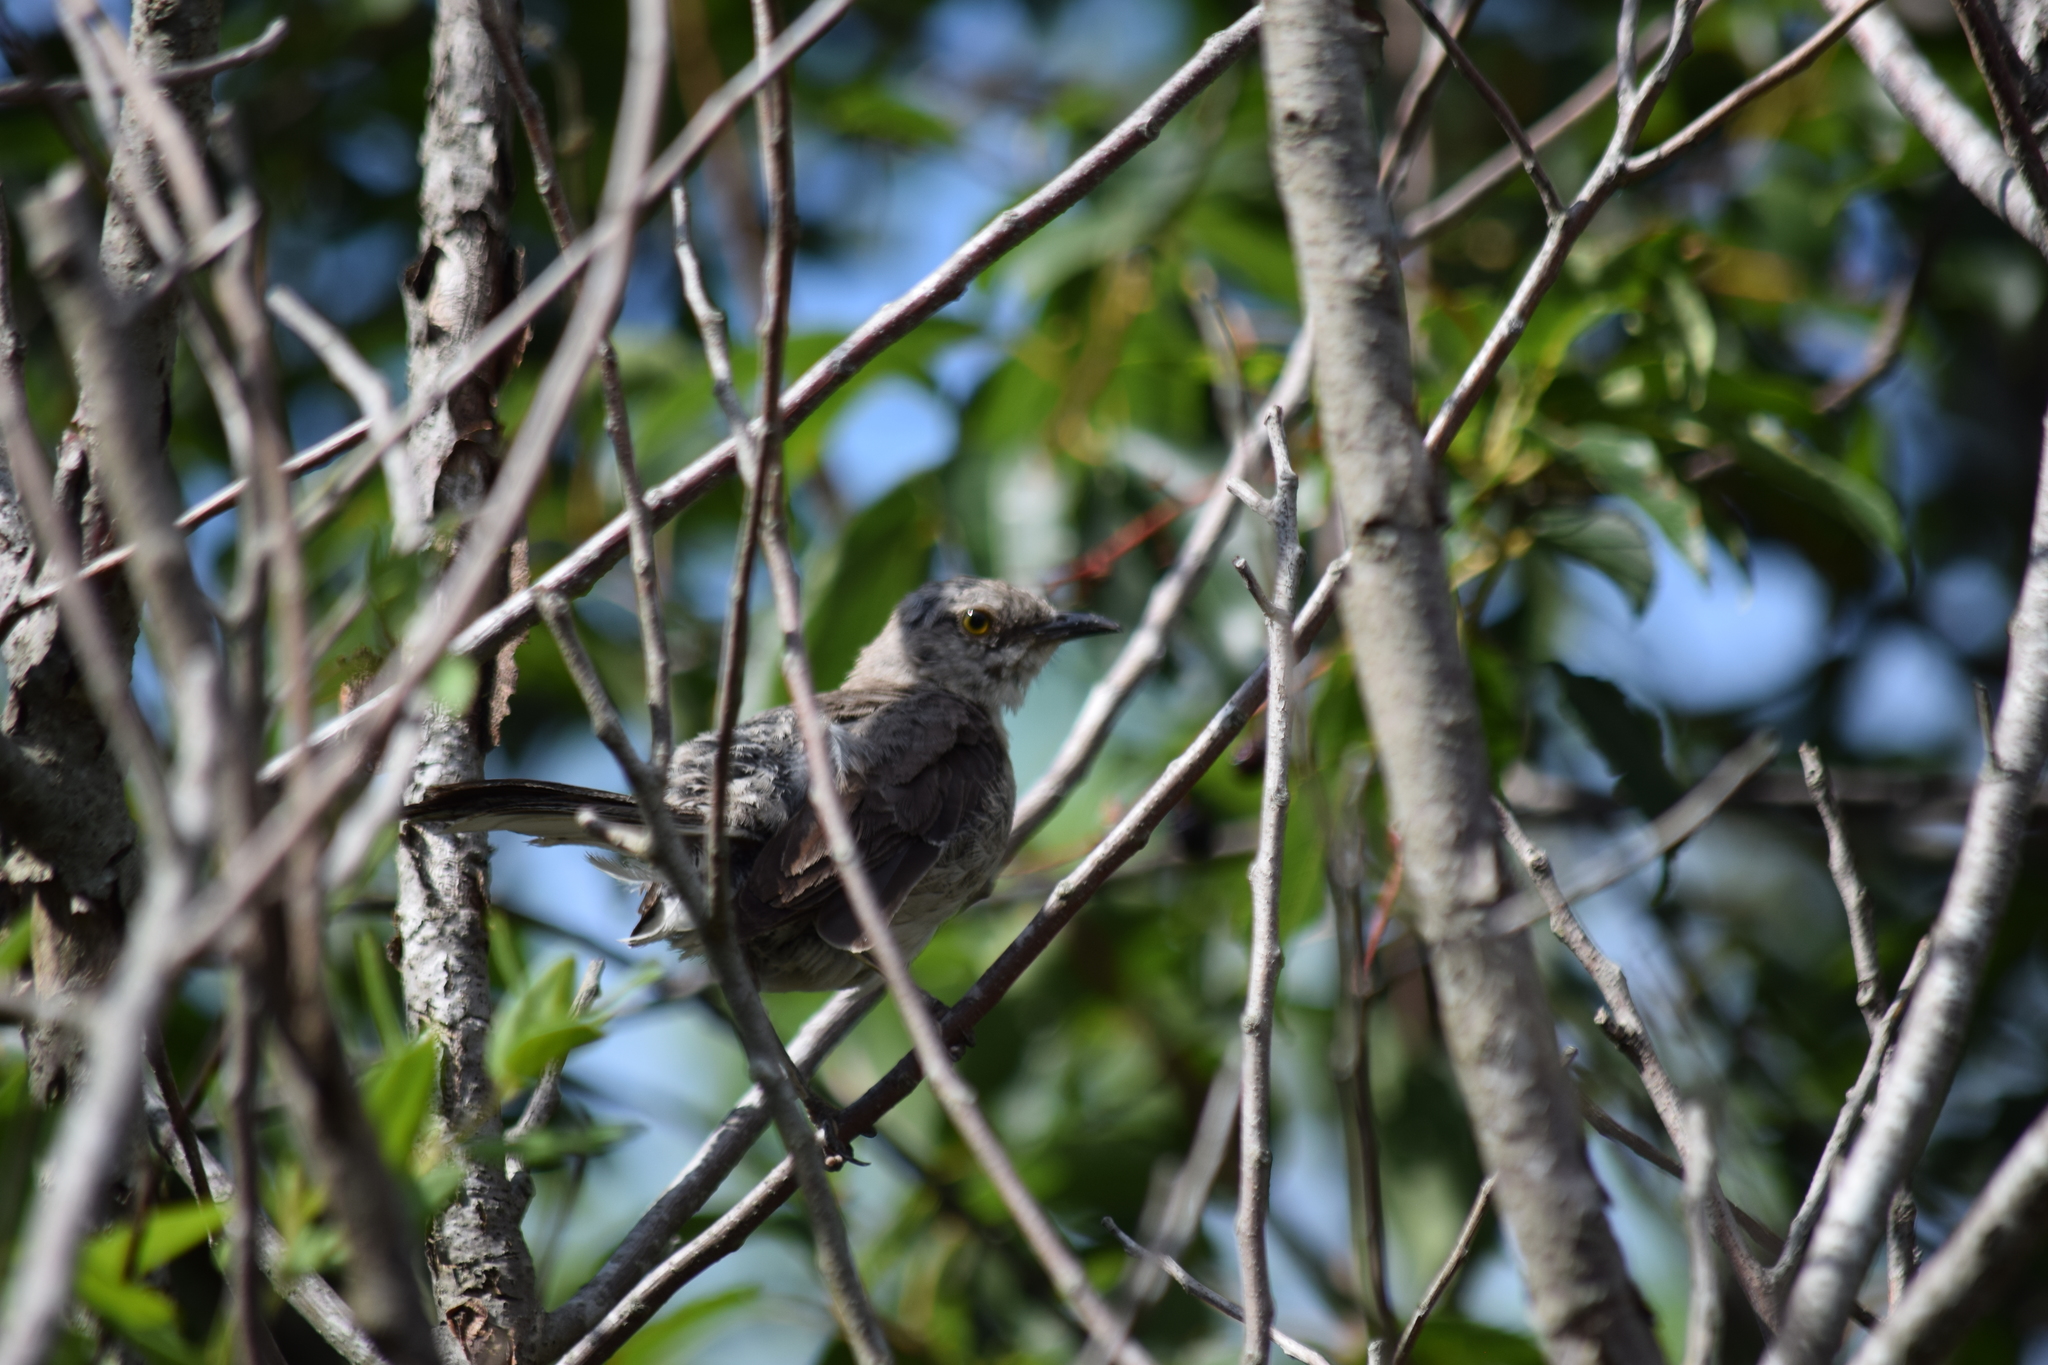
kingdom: Animalia
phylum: Chordata
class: Aves
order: Passeriformes
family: Mimidae
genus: Mimus
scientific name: Mimus polyglottos
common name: Northern mockingbird
